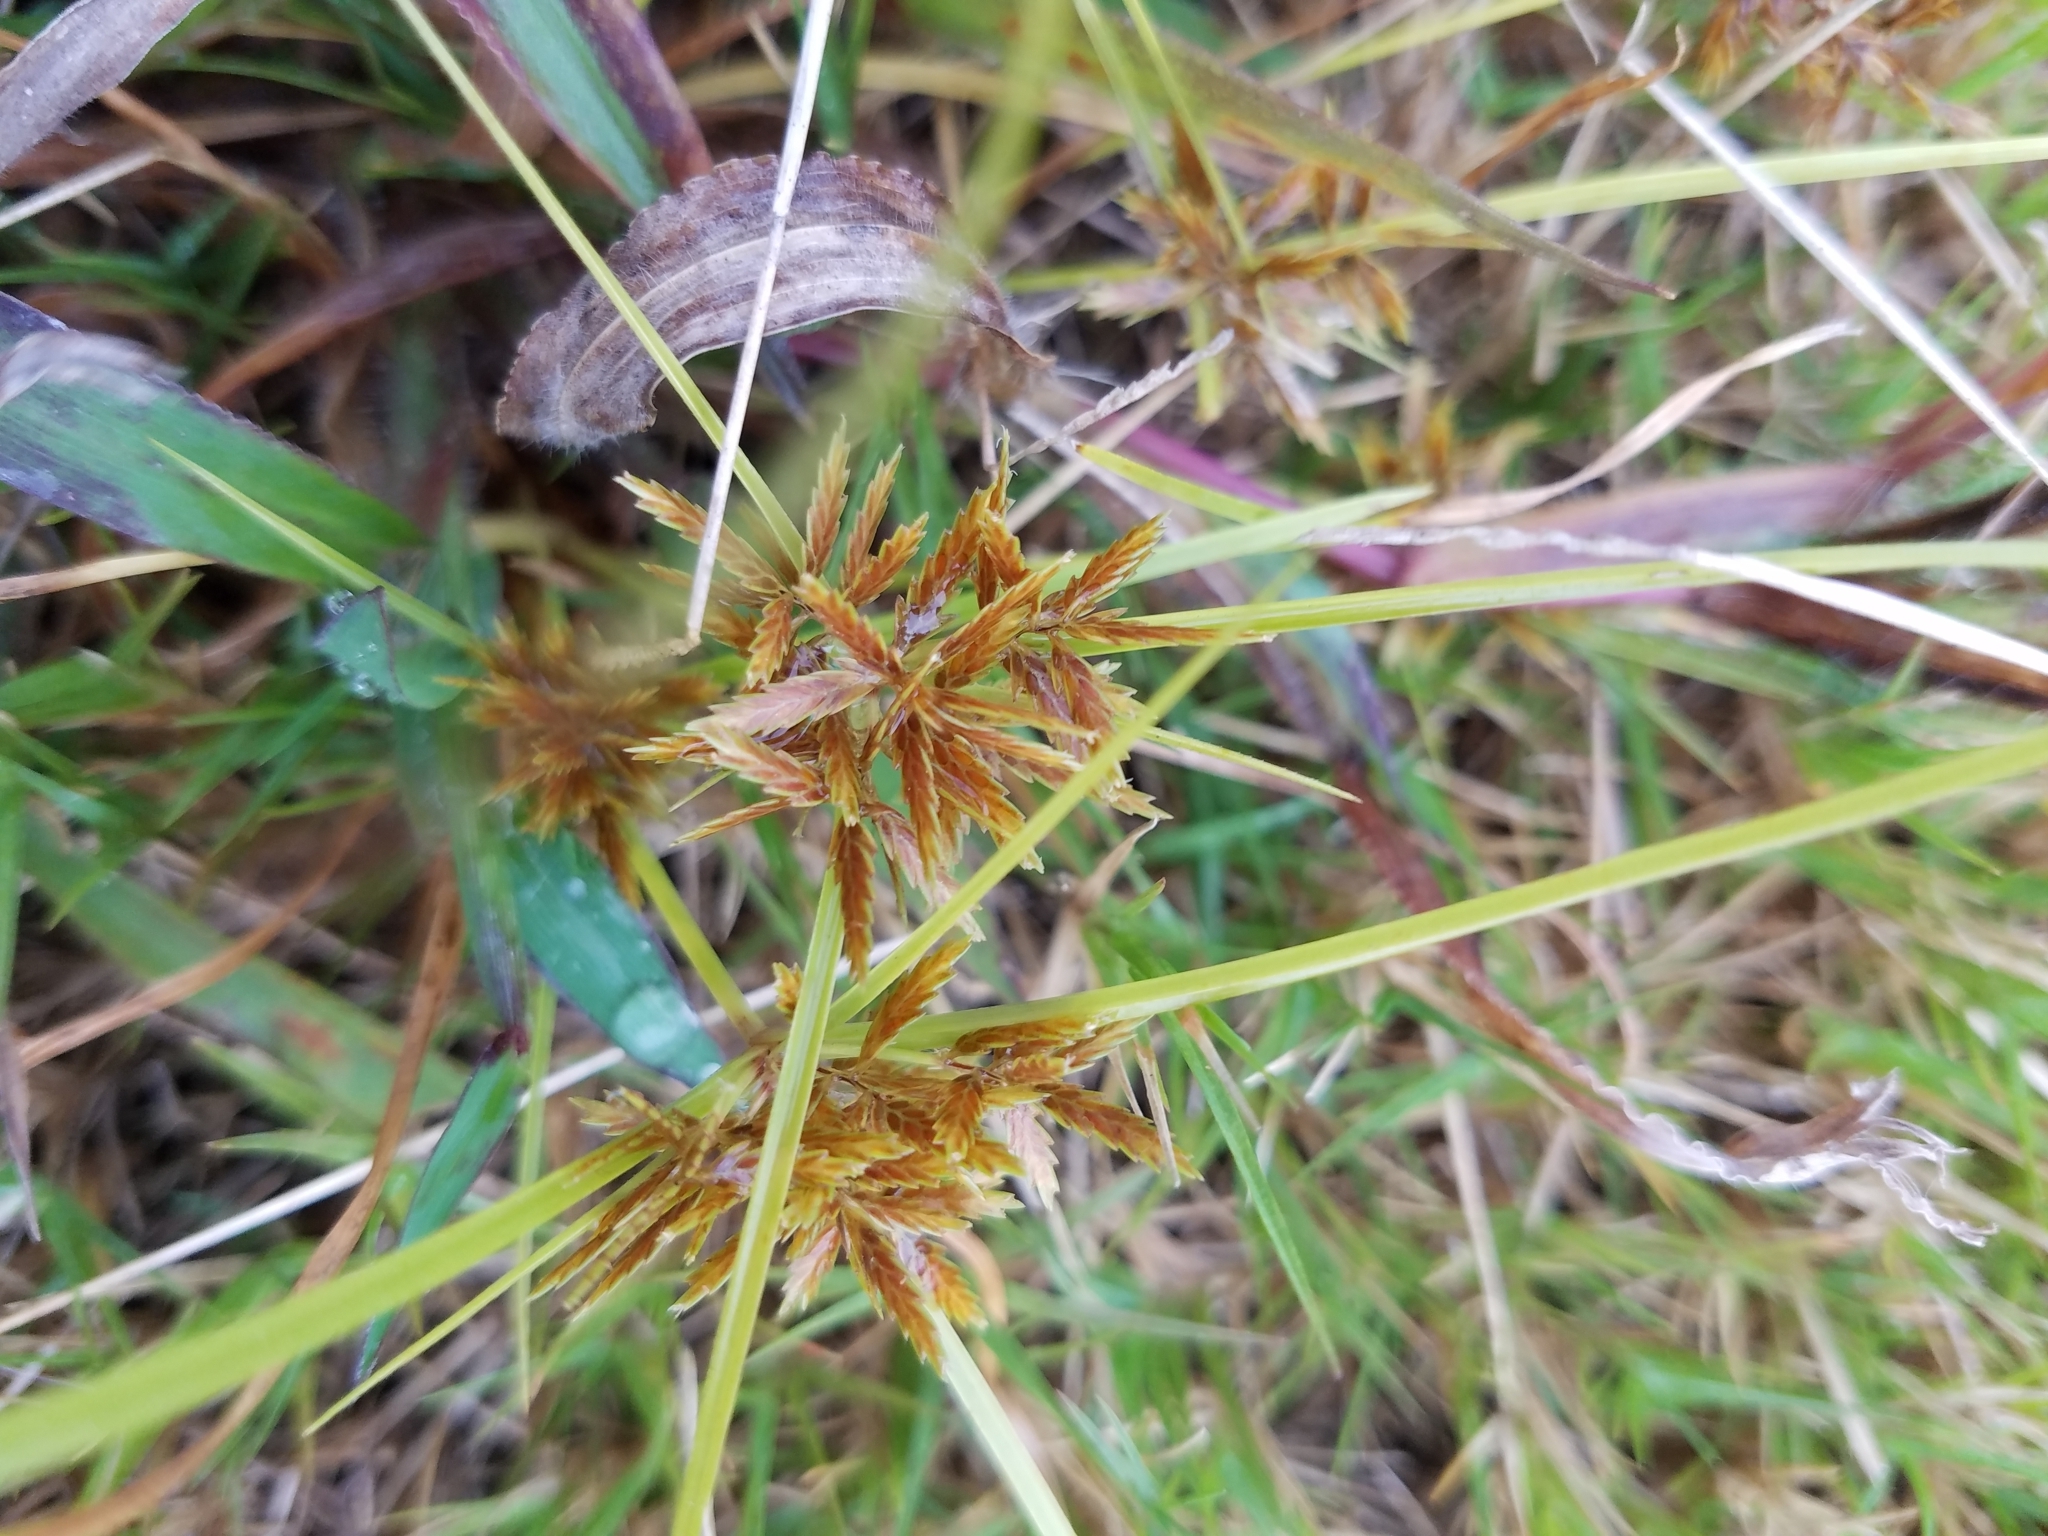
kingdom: Plantae
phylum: Tracheophyta
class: Liliopsida
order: Poales
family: Cyperaceae
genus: Cyperus
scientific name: Cyperus polystachyos
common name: Bunchy flat sedge
